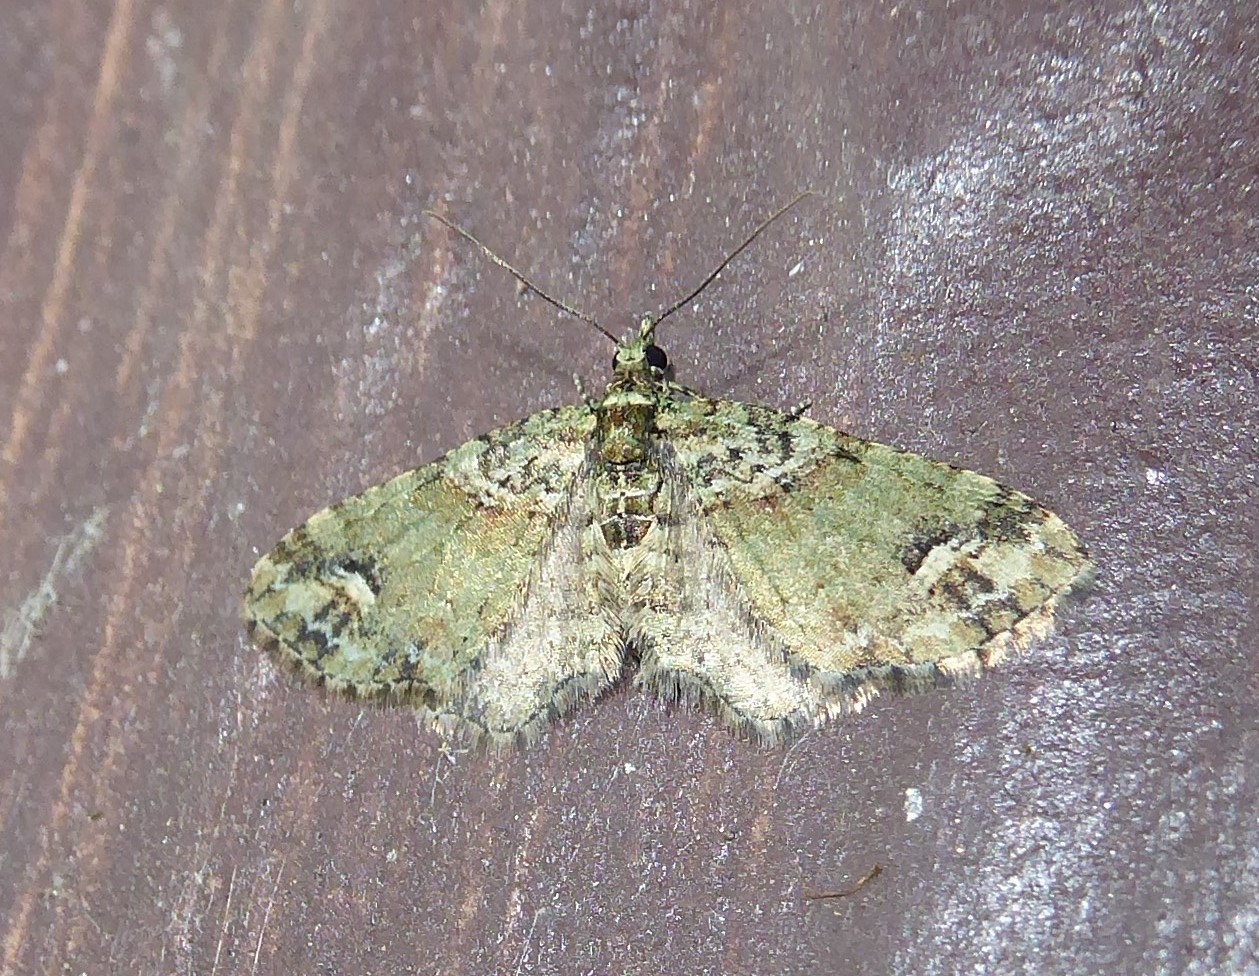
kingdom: Animalia
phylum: Arthropoda
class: Insecta
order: Lepidoptera
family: Geometridae
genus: Idaea
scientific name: Idaea mutanda
